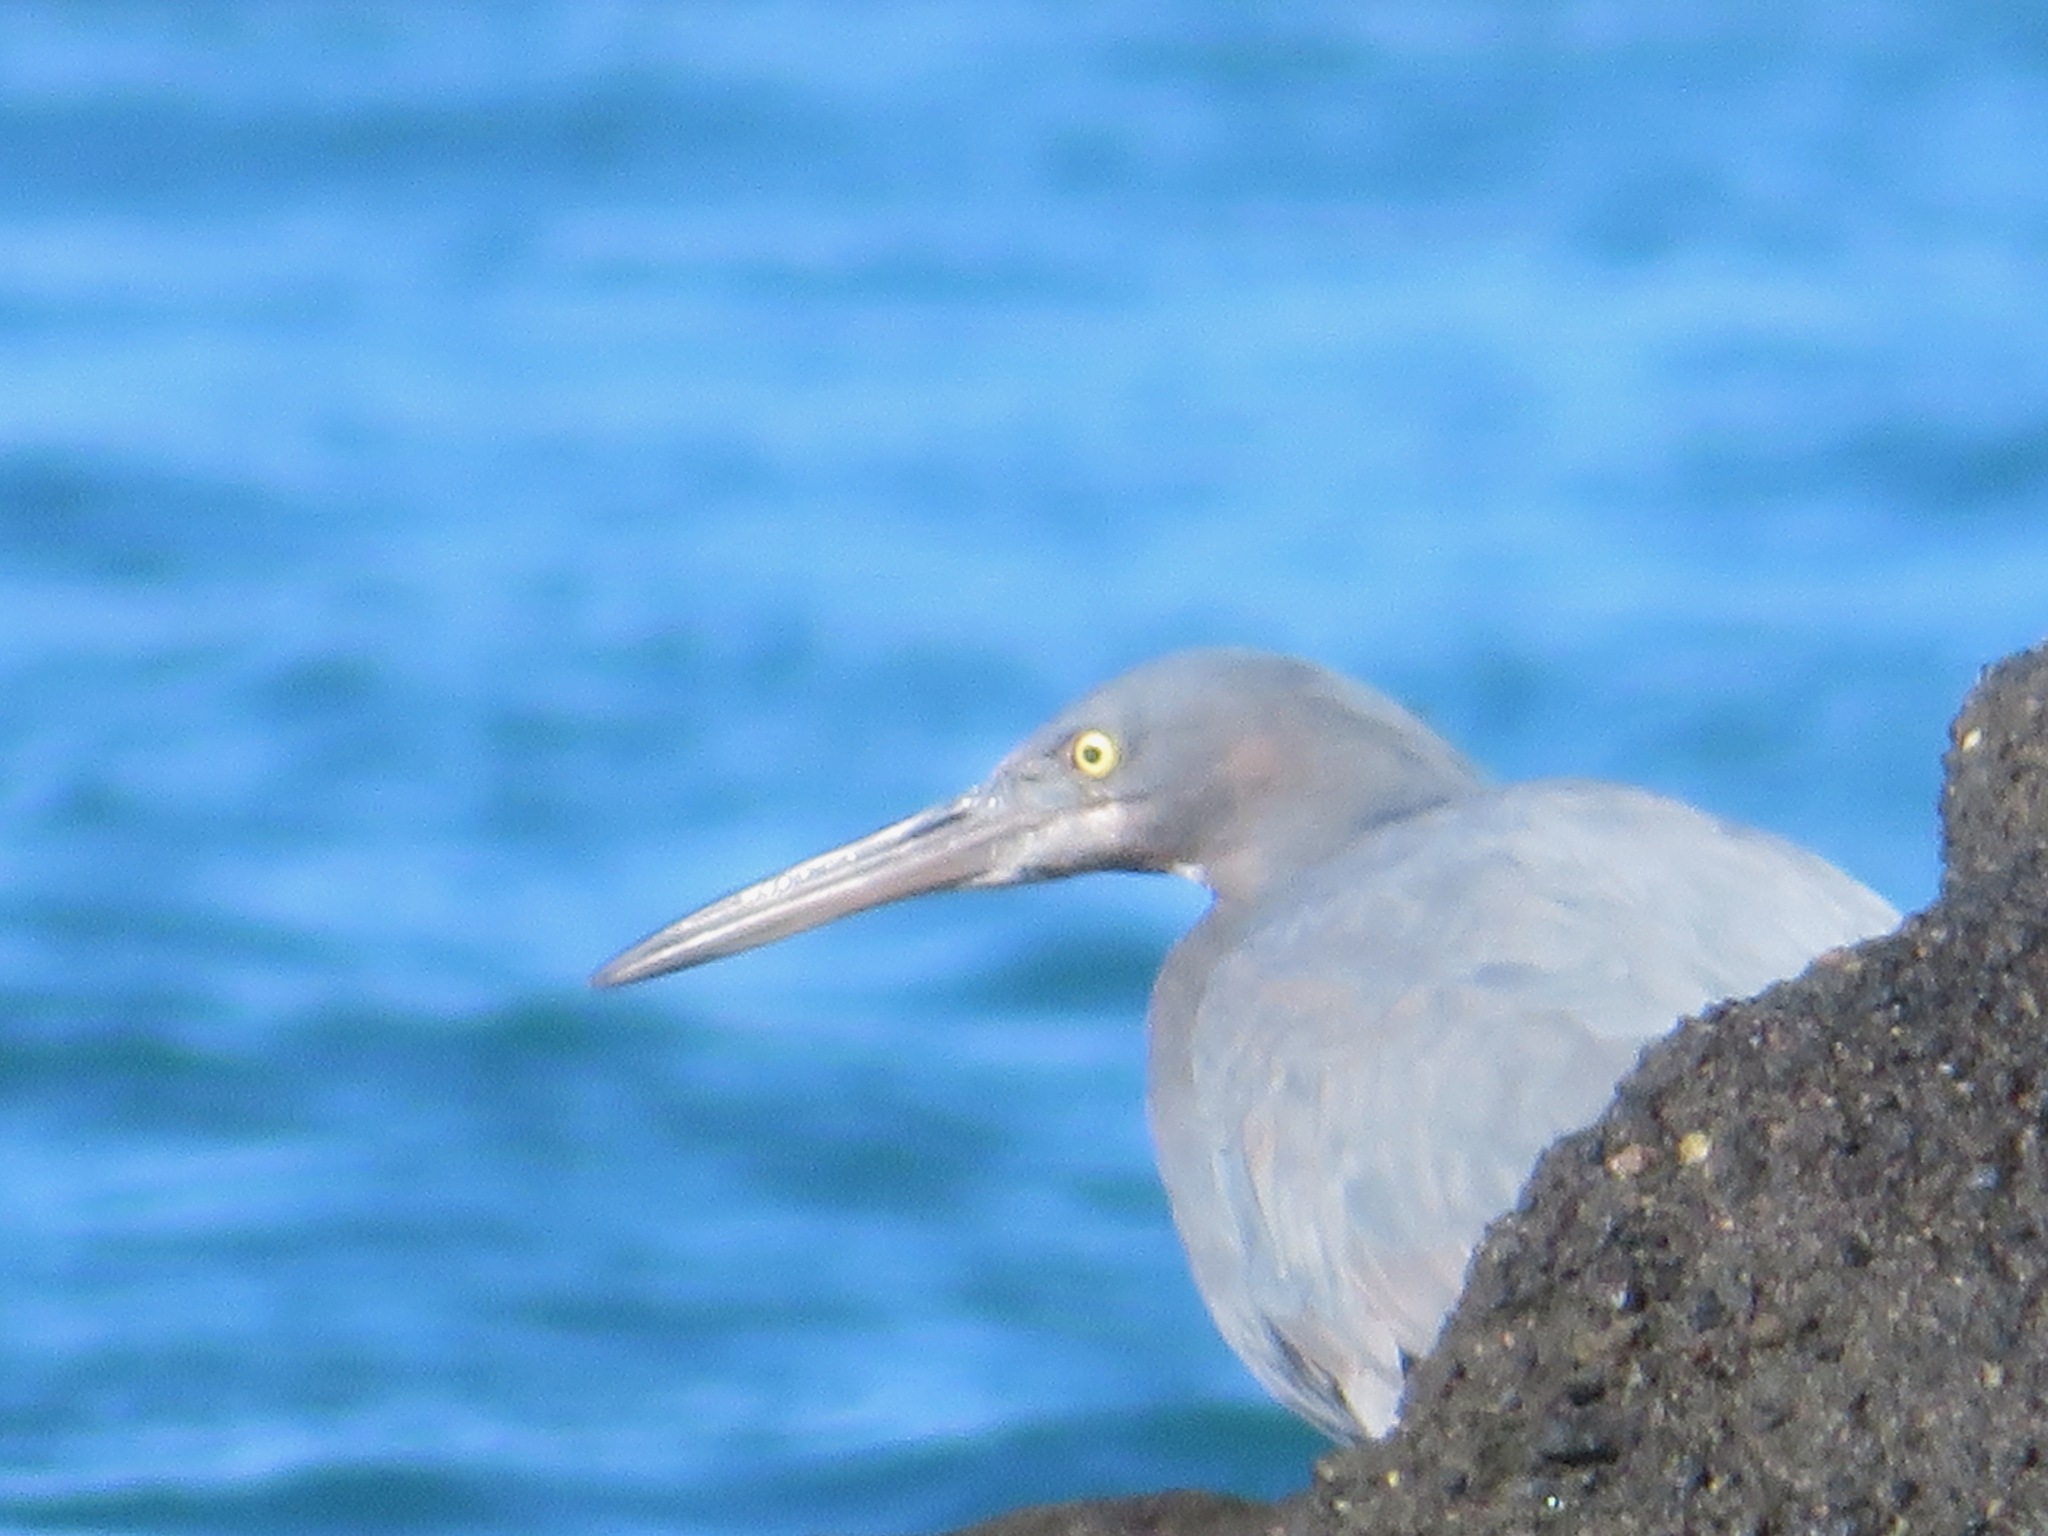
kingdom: Animalia
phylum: Chordata
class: Aves
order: Pelecaniformes
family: Ardeidae
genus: Egretta
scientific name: Egretta sacra
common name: Pacific reef heron
